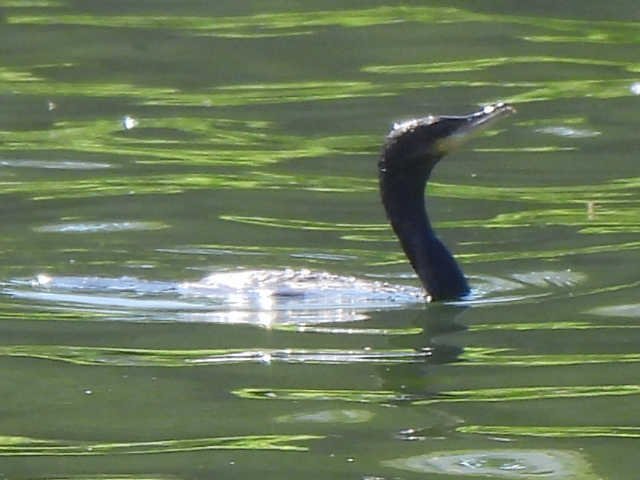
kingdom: Animalia
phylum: Chordata
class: Aves
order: Suliformes
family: Phalacrocoracidae
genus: Phalacrocorax
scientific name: Phalacrocorax brasilianus
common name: Neotropic cormorant
